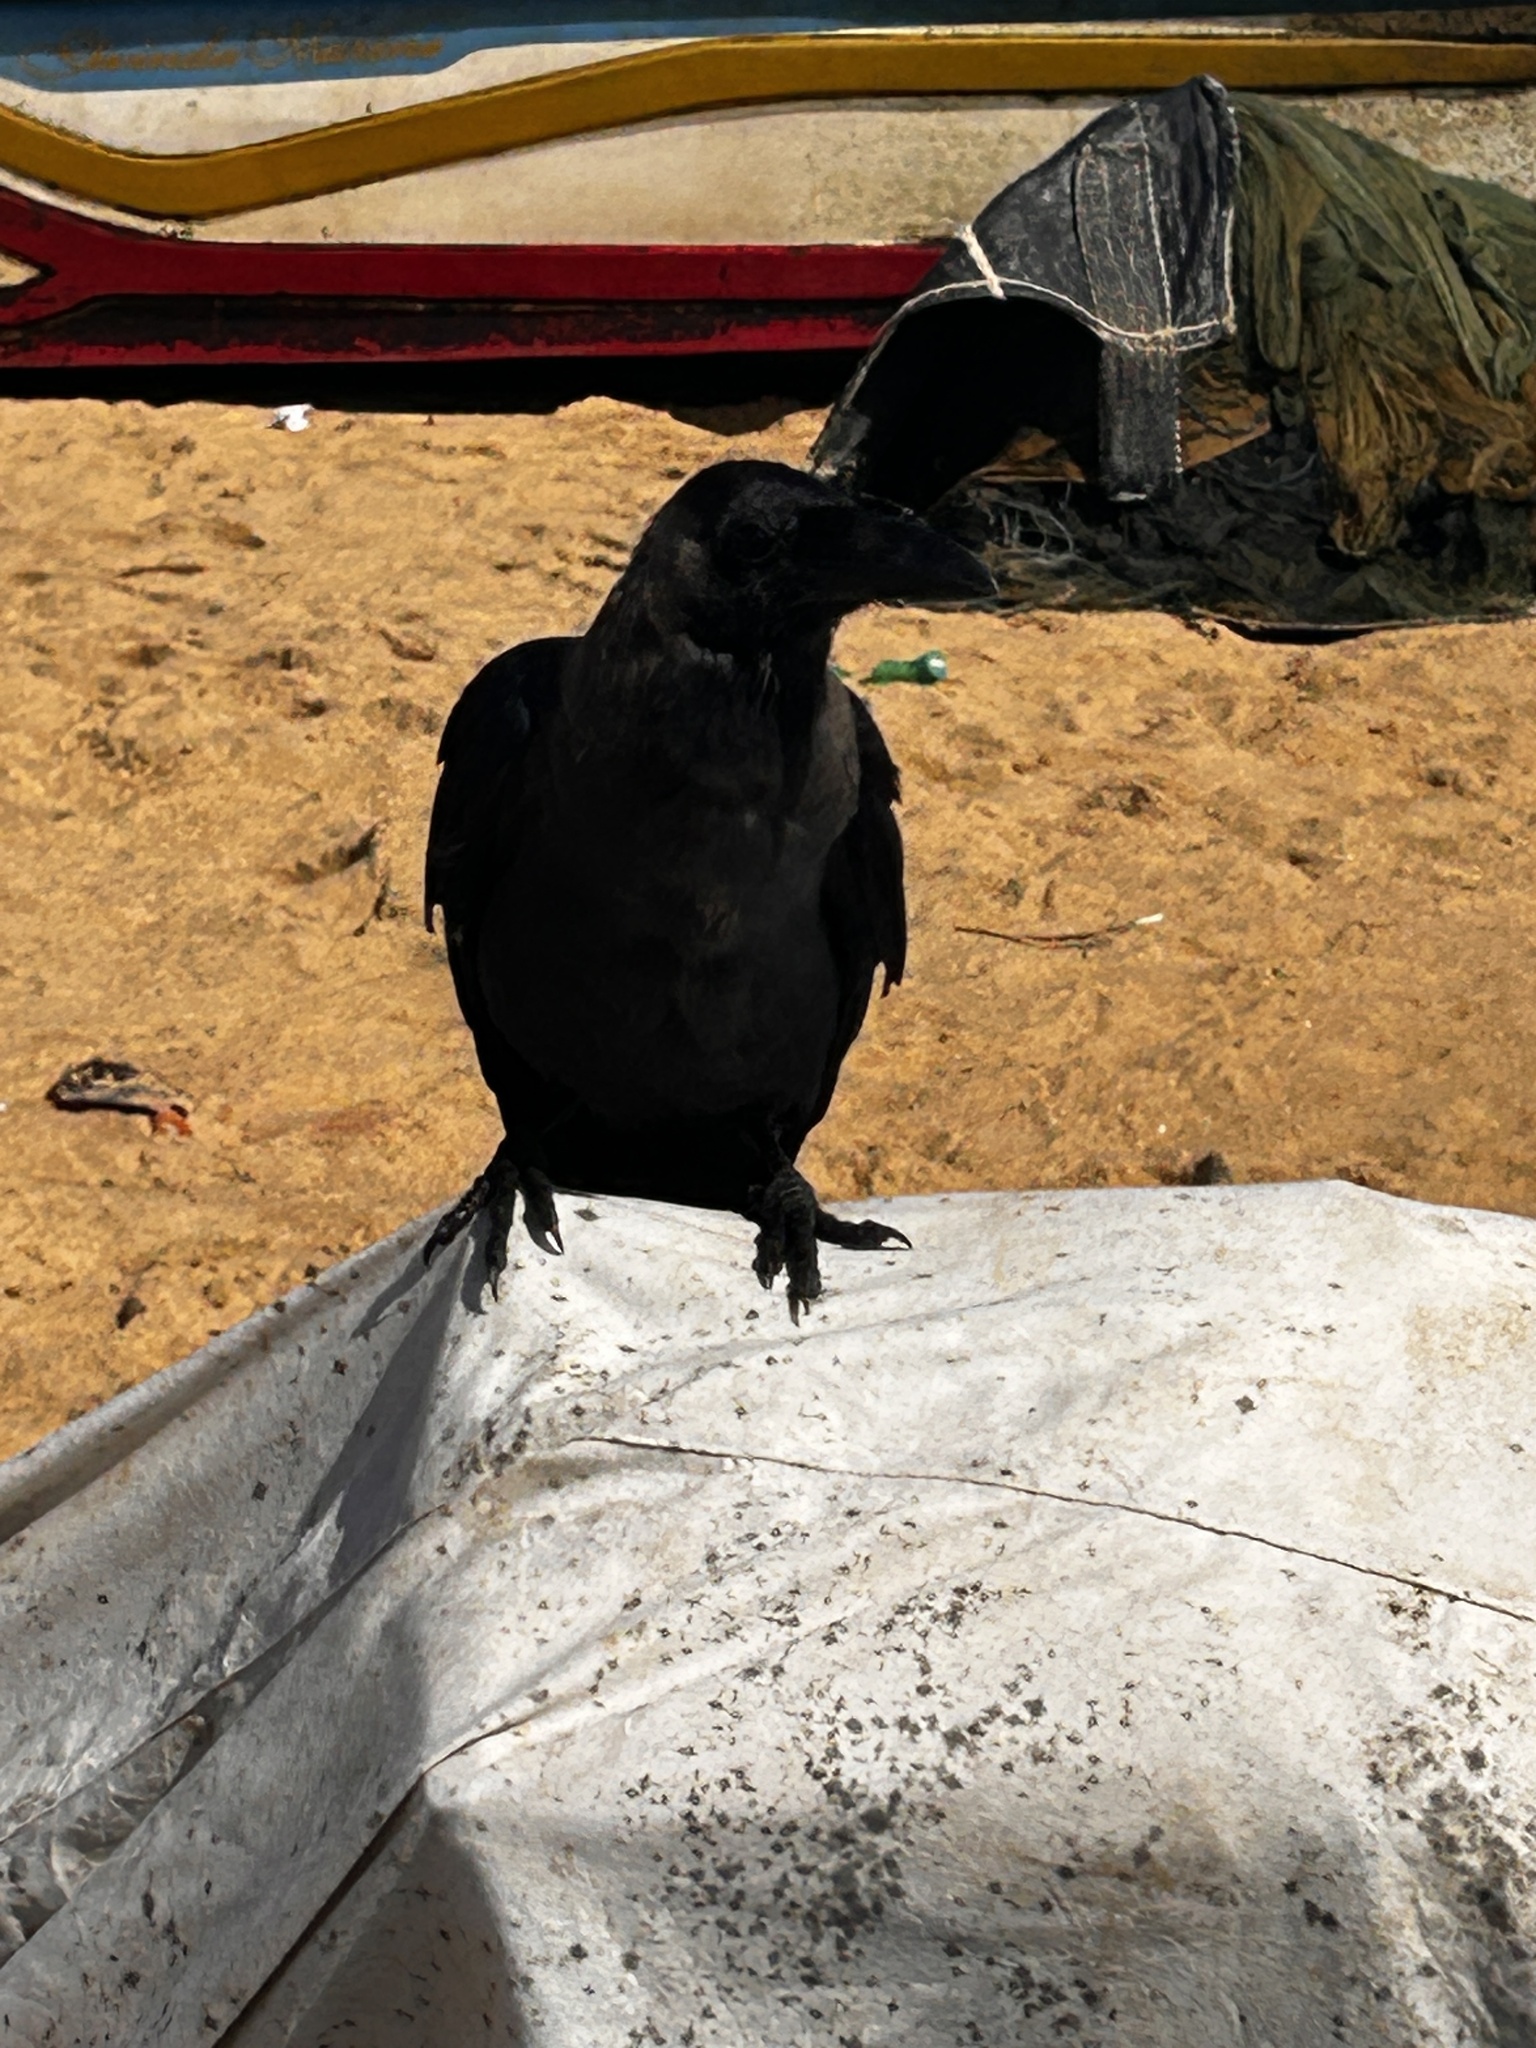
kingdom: Animalia
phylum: Chordata
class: Aves
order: Passeriformes
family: Corvidae
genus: Corvus
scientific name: Corvus splendens
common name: House crow
